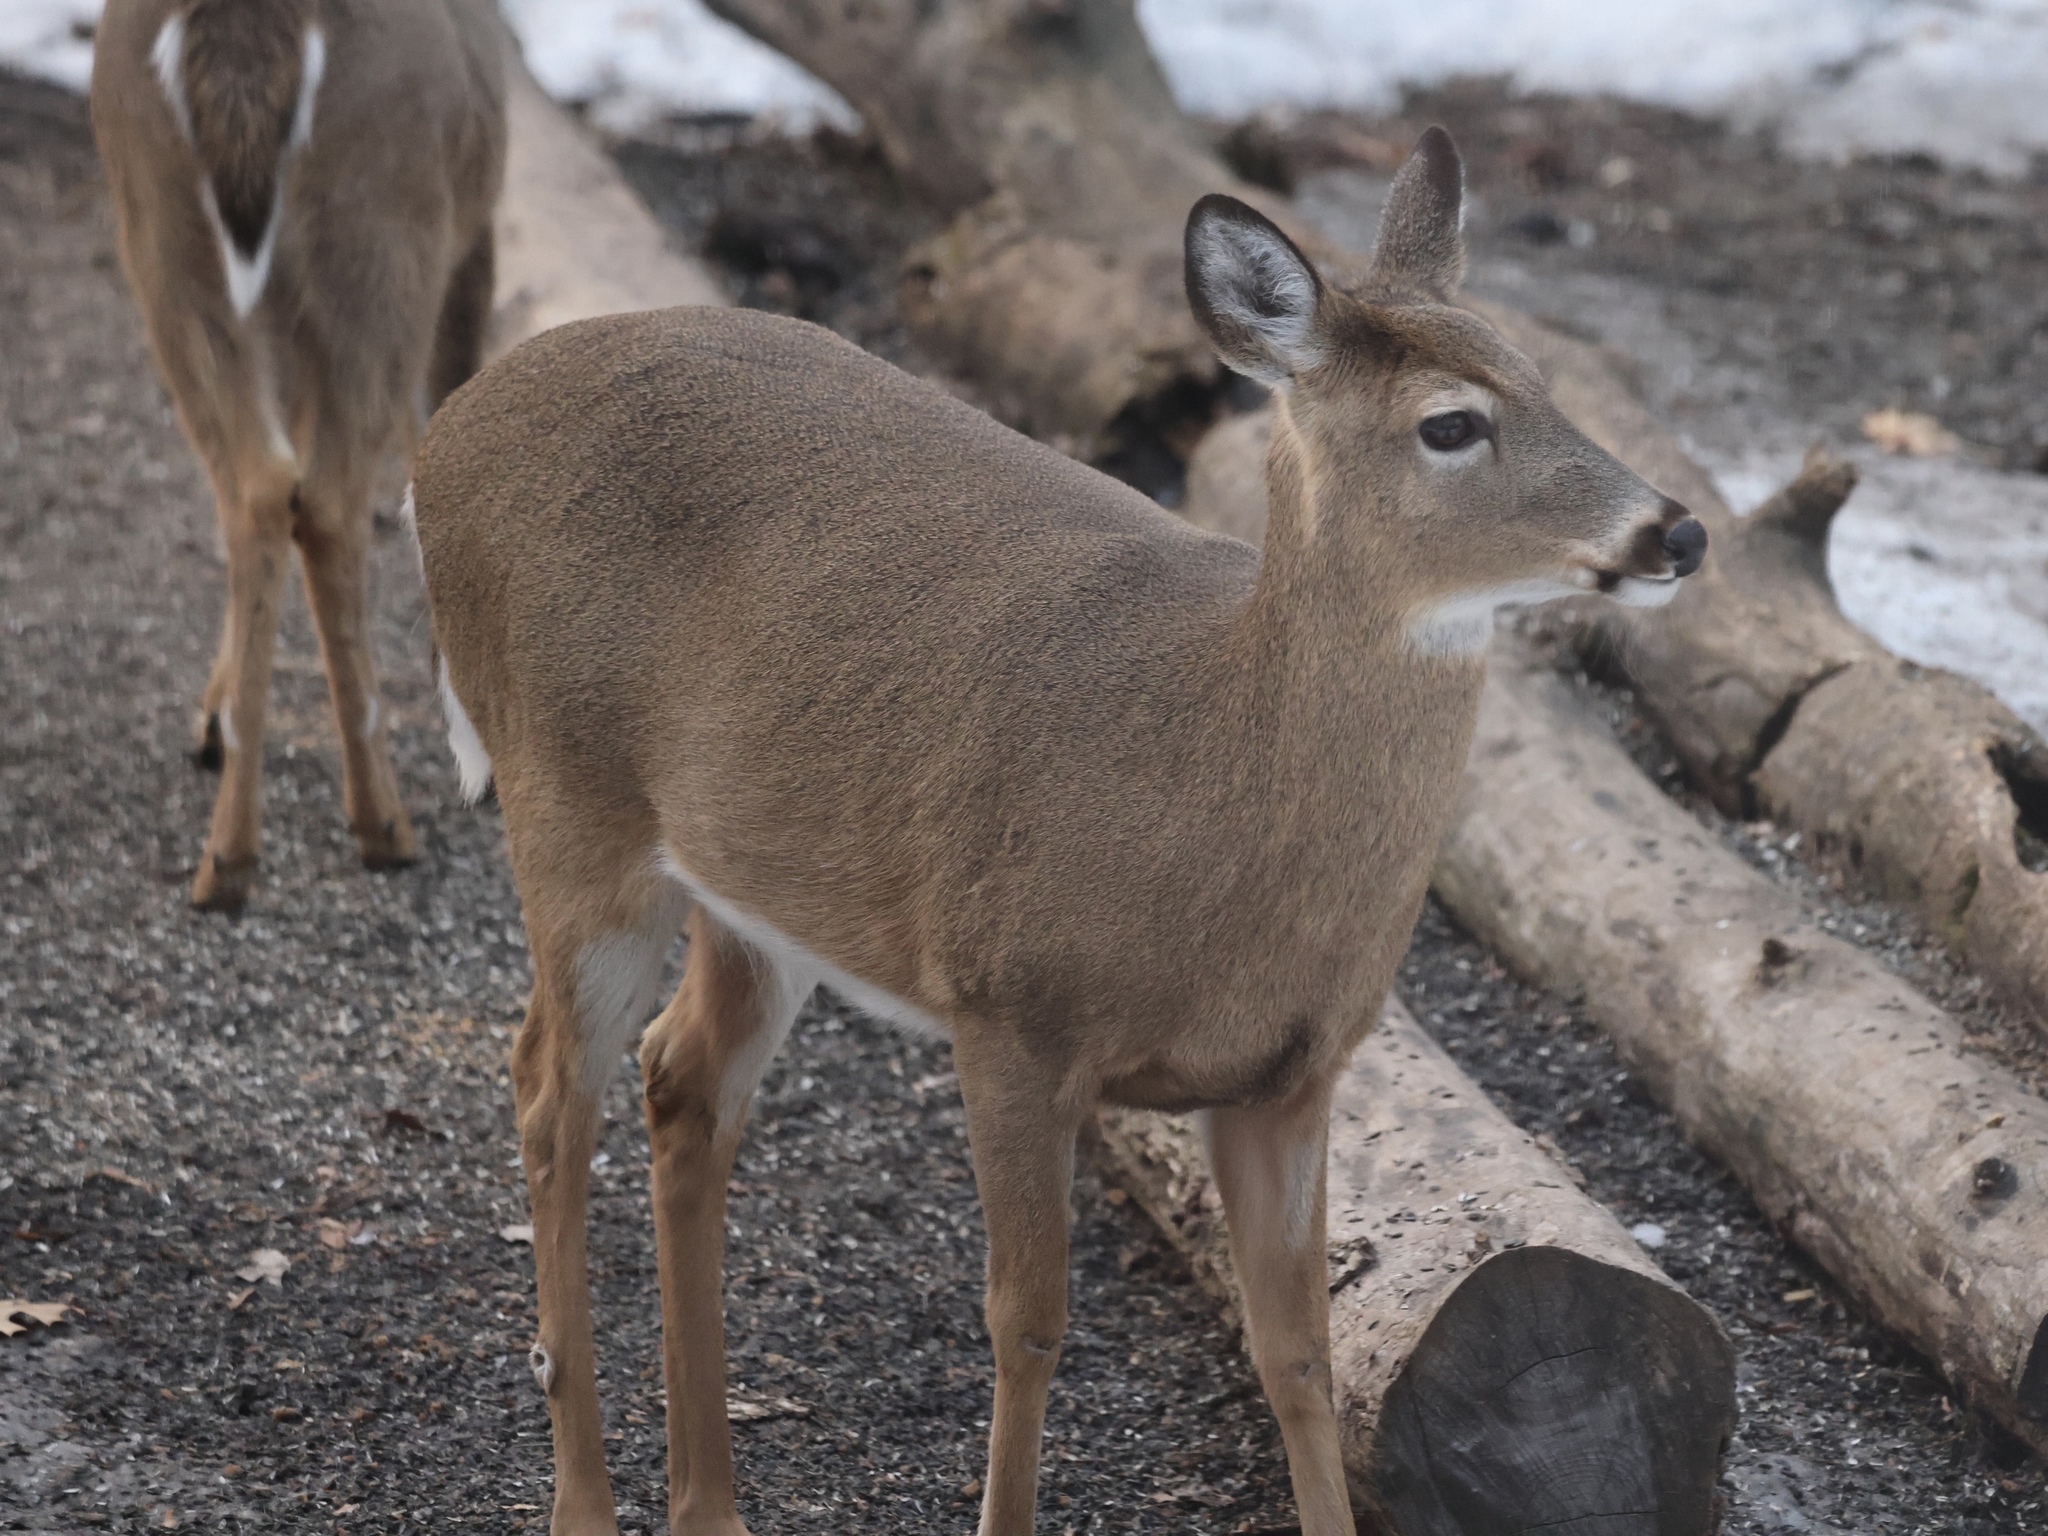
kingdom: Animalia
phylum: Chordata
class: Mammalia
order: Artiodactyla
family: Cervidae
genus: Odocoileus
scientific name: Odocoileus virginianus
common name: White-tailed deer
